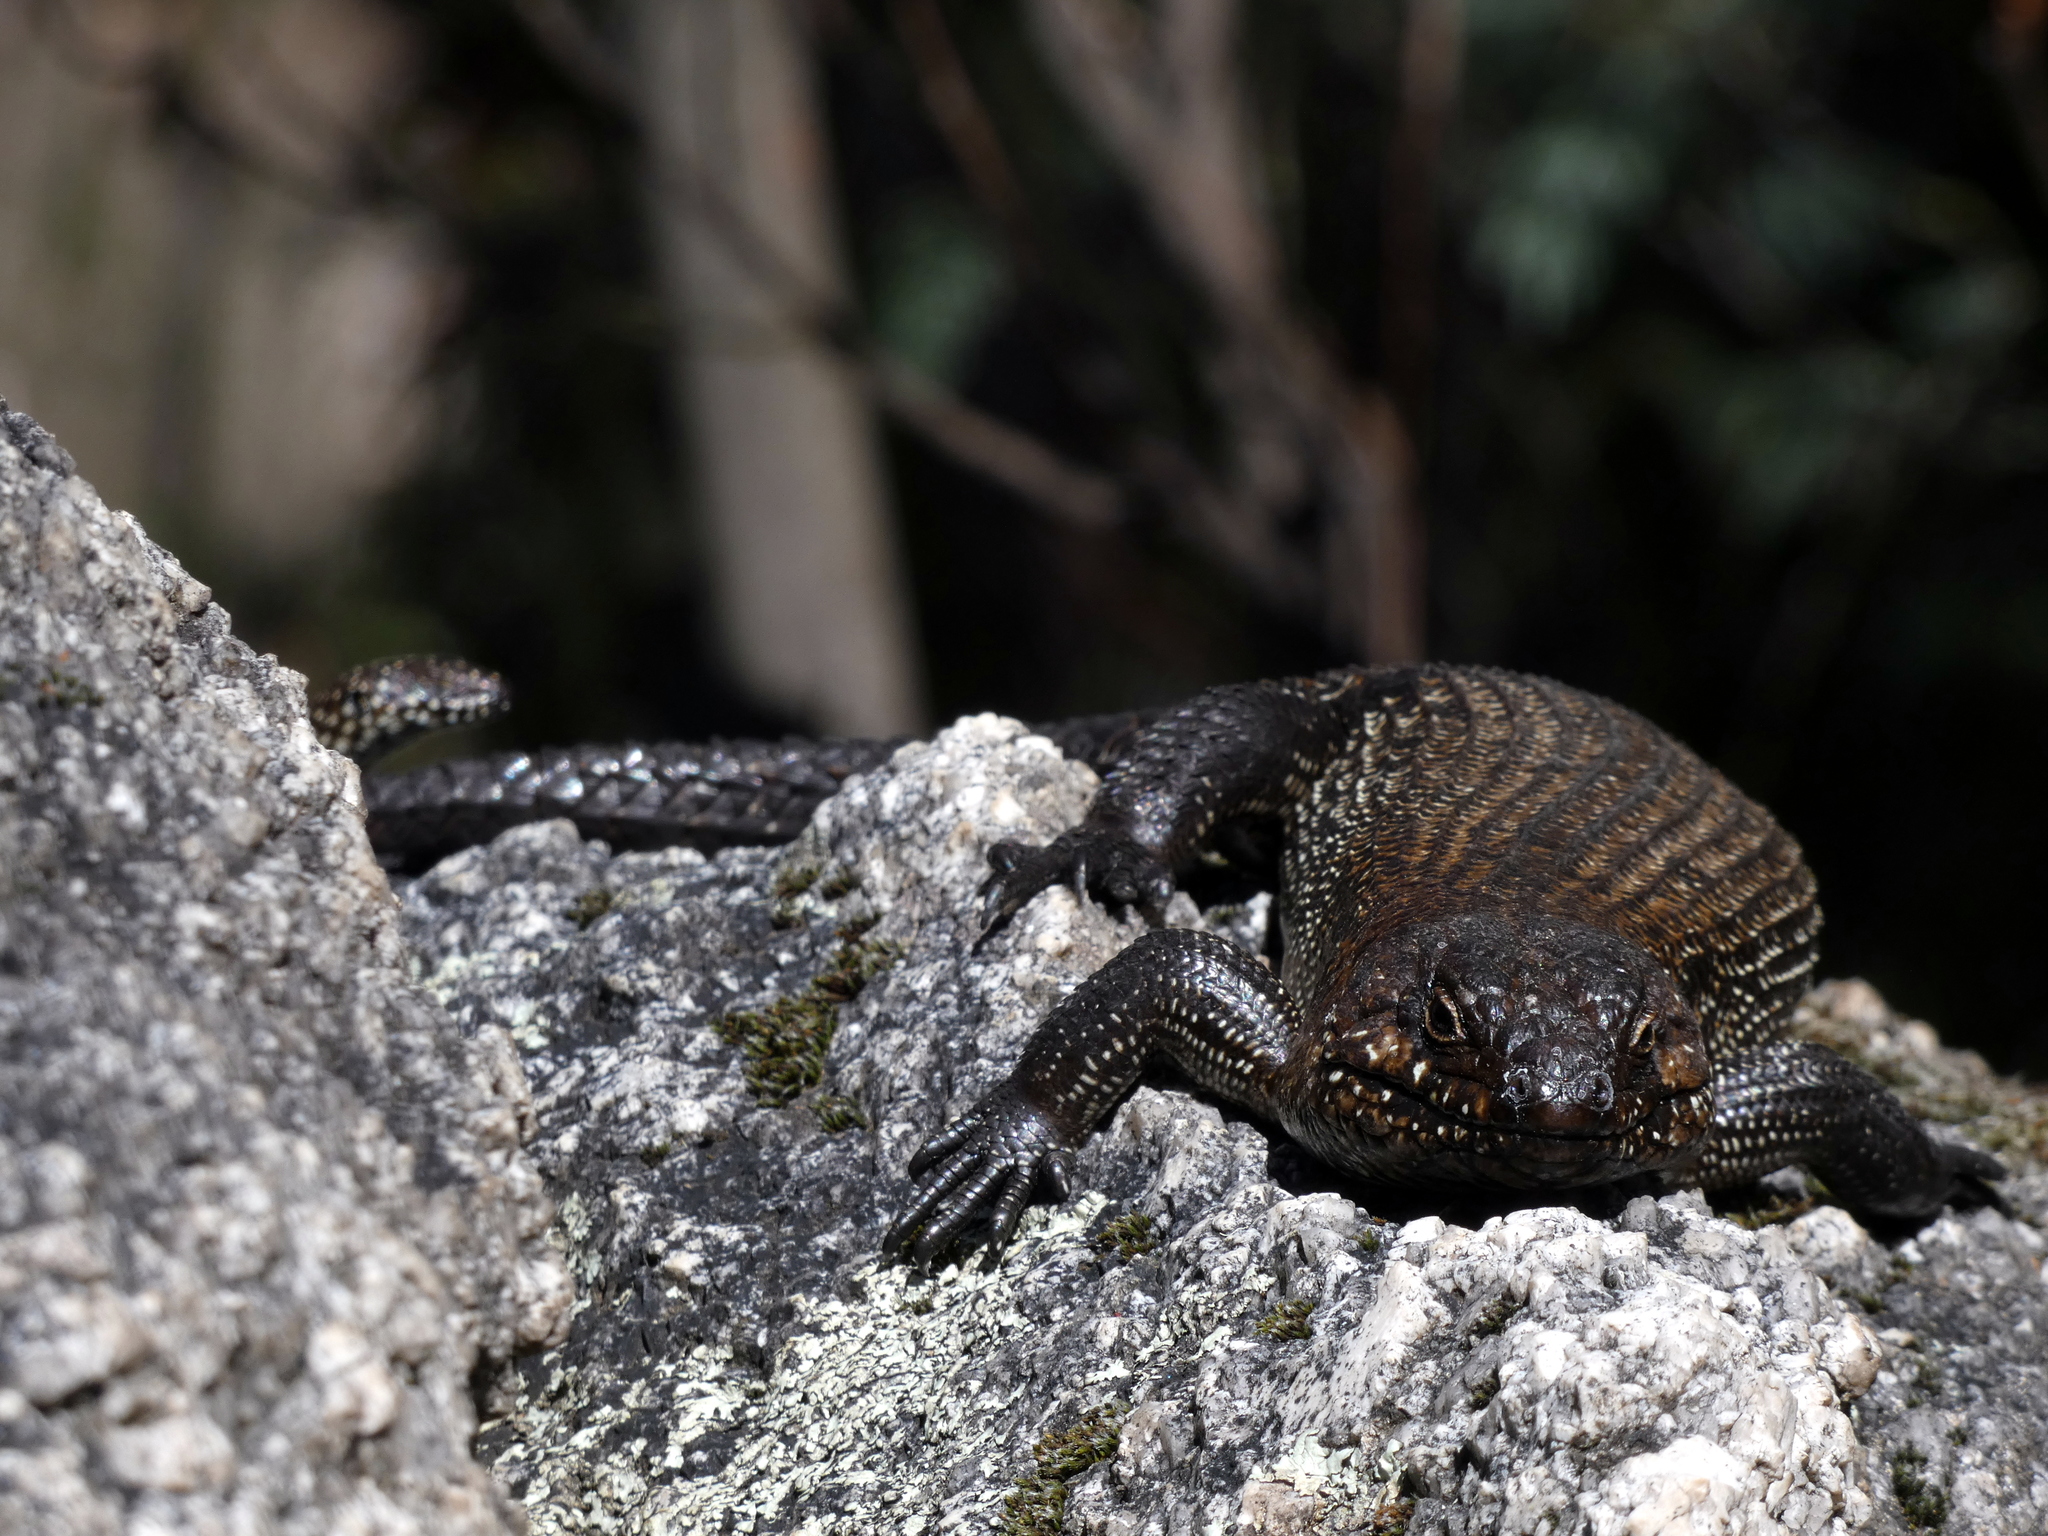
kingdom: Animalia
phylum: Chordata
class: Squamata
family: Scincidae
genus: Egernia
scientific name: Egernia cunninghami
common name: Cunningham's skink
